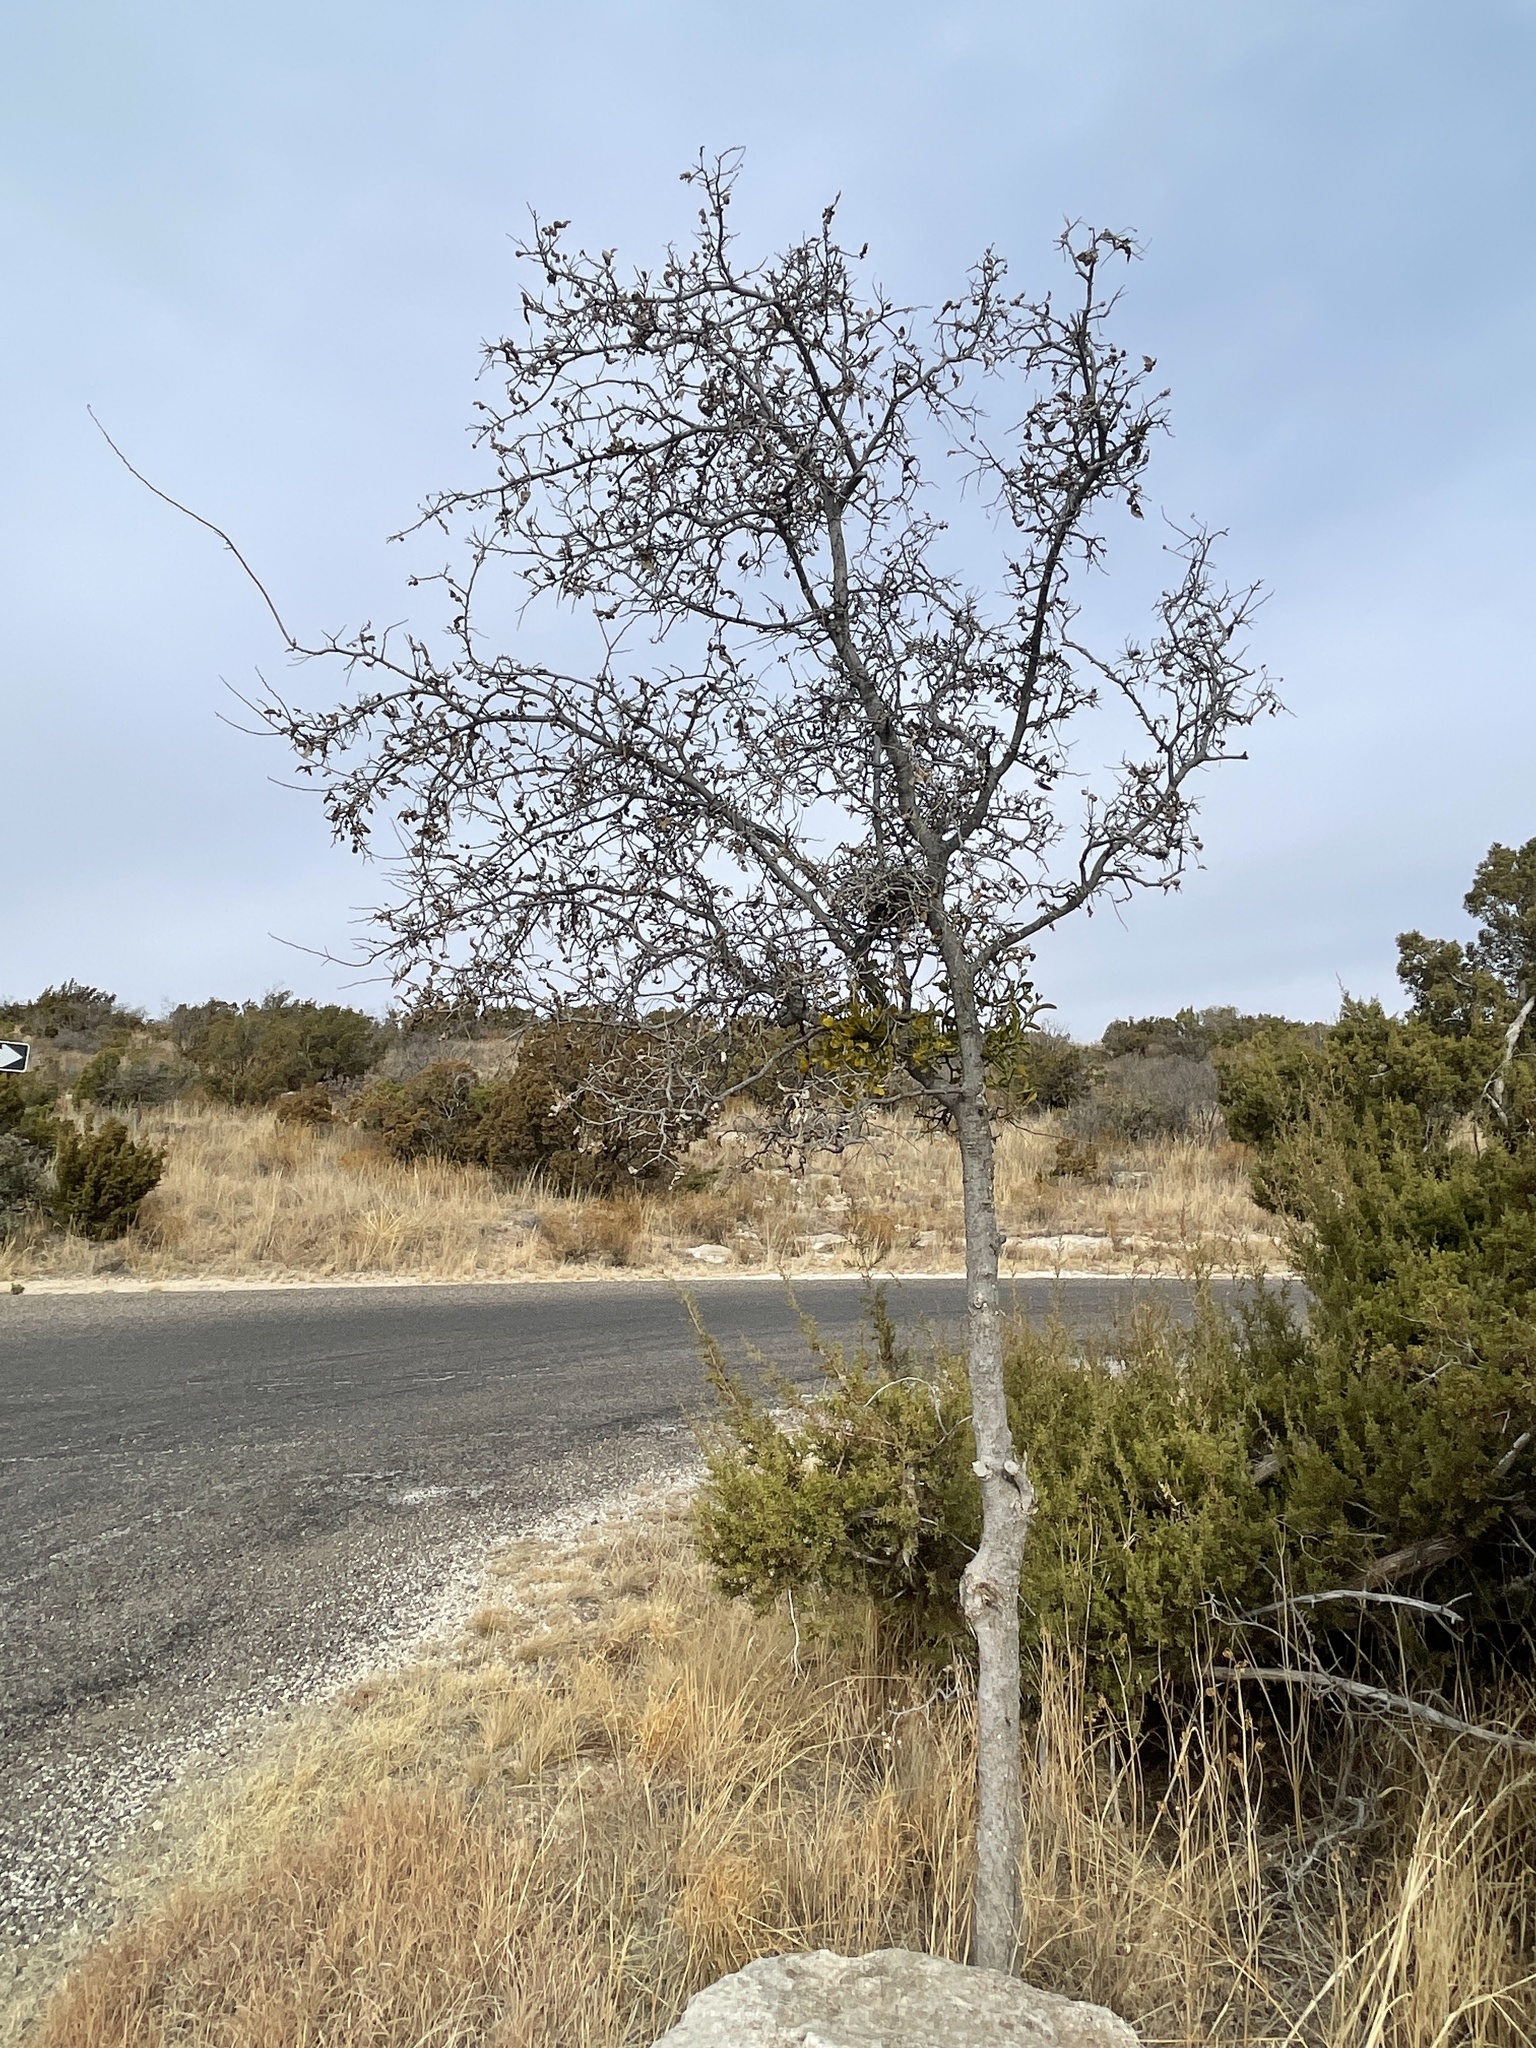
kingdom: Plantae
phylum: Tracheophyta
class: Magnoliopsida
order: Rosales
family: Cannabaceae
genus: Celtis
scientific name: Celtis reticulata
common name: Netleaf hackberry
